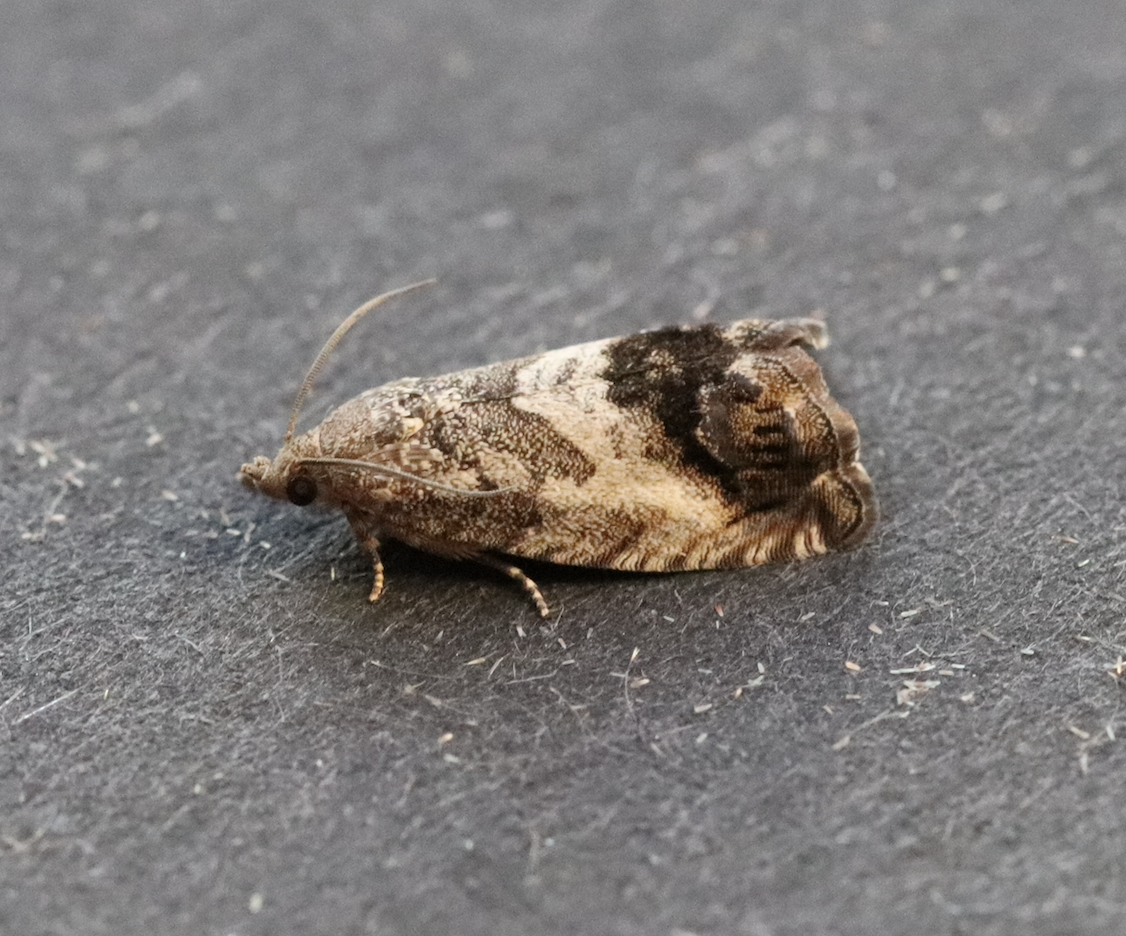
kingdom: Animalia
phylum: Arthropoda
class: Insecta
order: Lepidoptera
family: Tortricidae
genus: Cydia
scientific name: Cydia splendana
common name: De: kastanienwickler, eichenwickler es: oruga de la castaña fr: carpocapse des châtaignes it: cidia o tortrice tardiva delle castagne pt: bichado das castanhas gb: acorn moth, chestnut fruit tortrix
